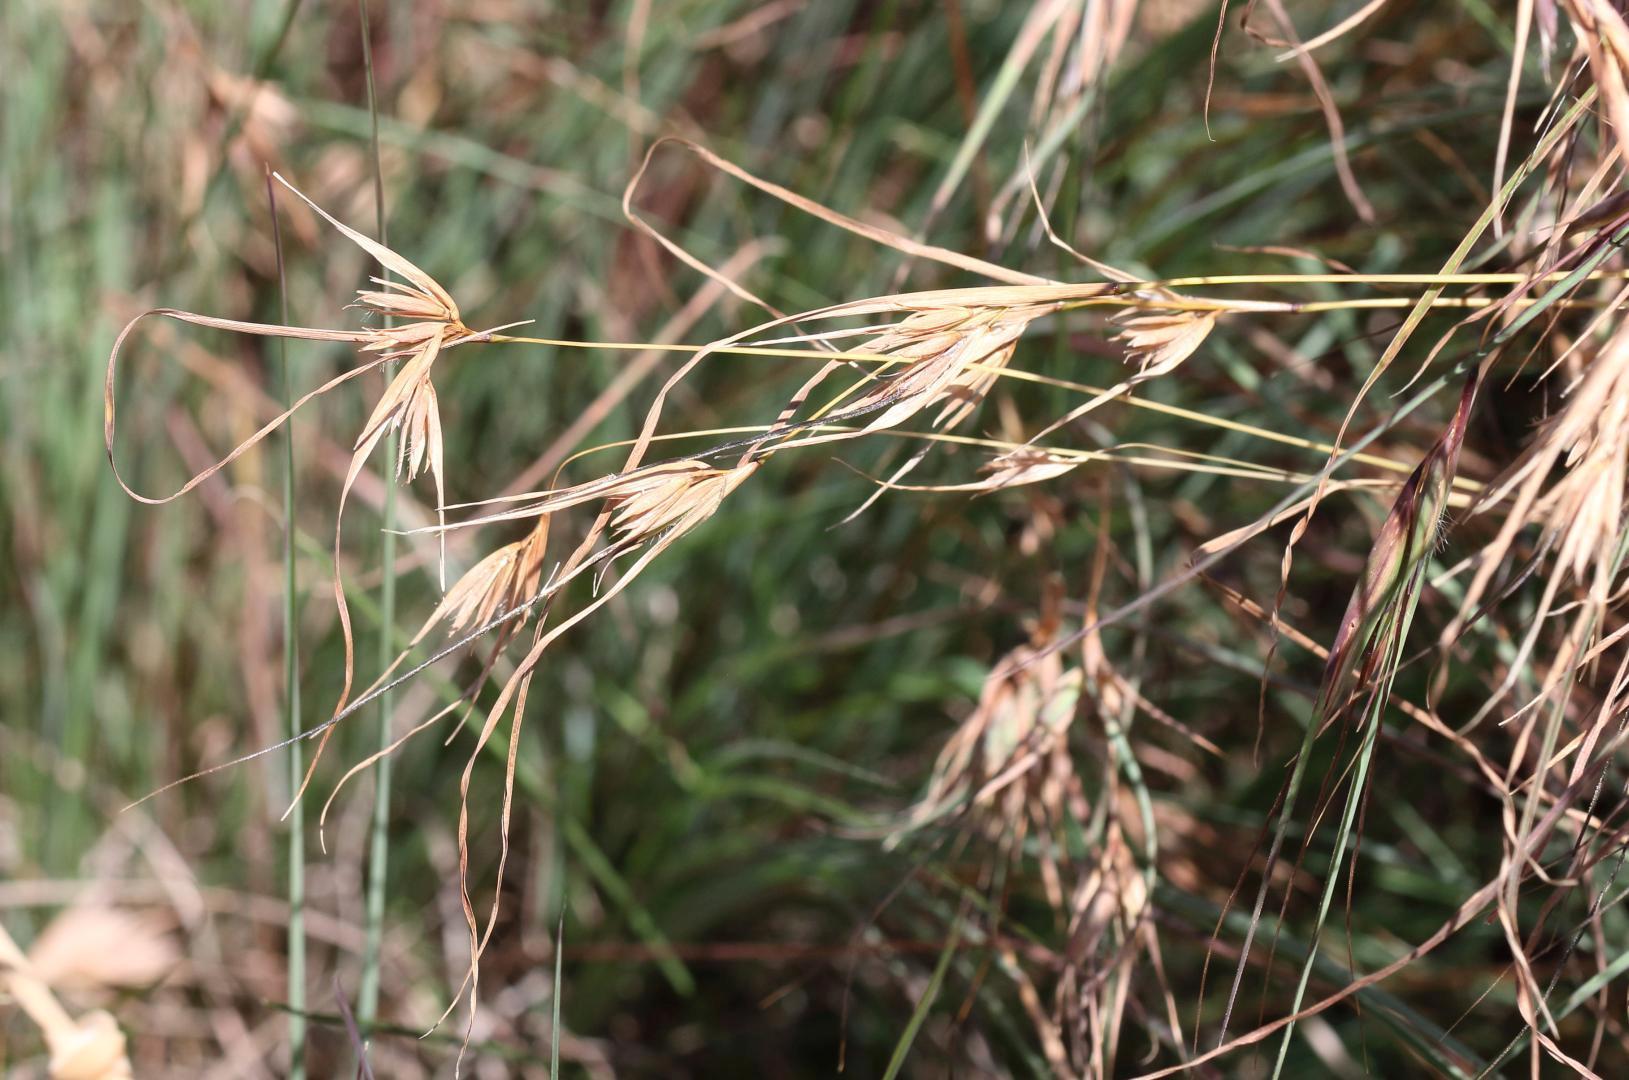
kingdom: Plantae
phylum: Tracheophyta
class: Liliopsida
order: Poales
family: Poaceae
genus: Themeda
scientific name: Themeda triandra
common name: Kangaroo grass
